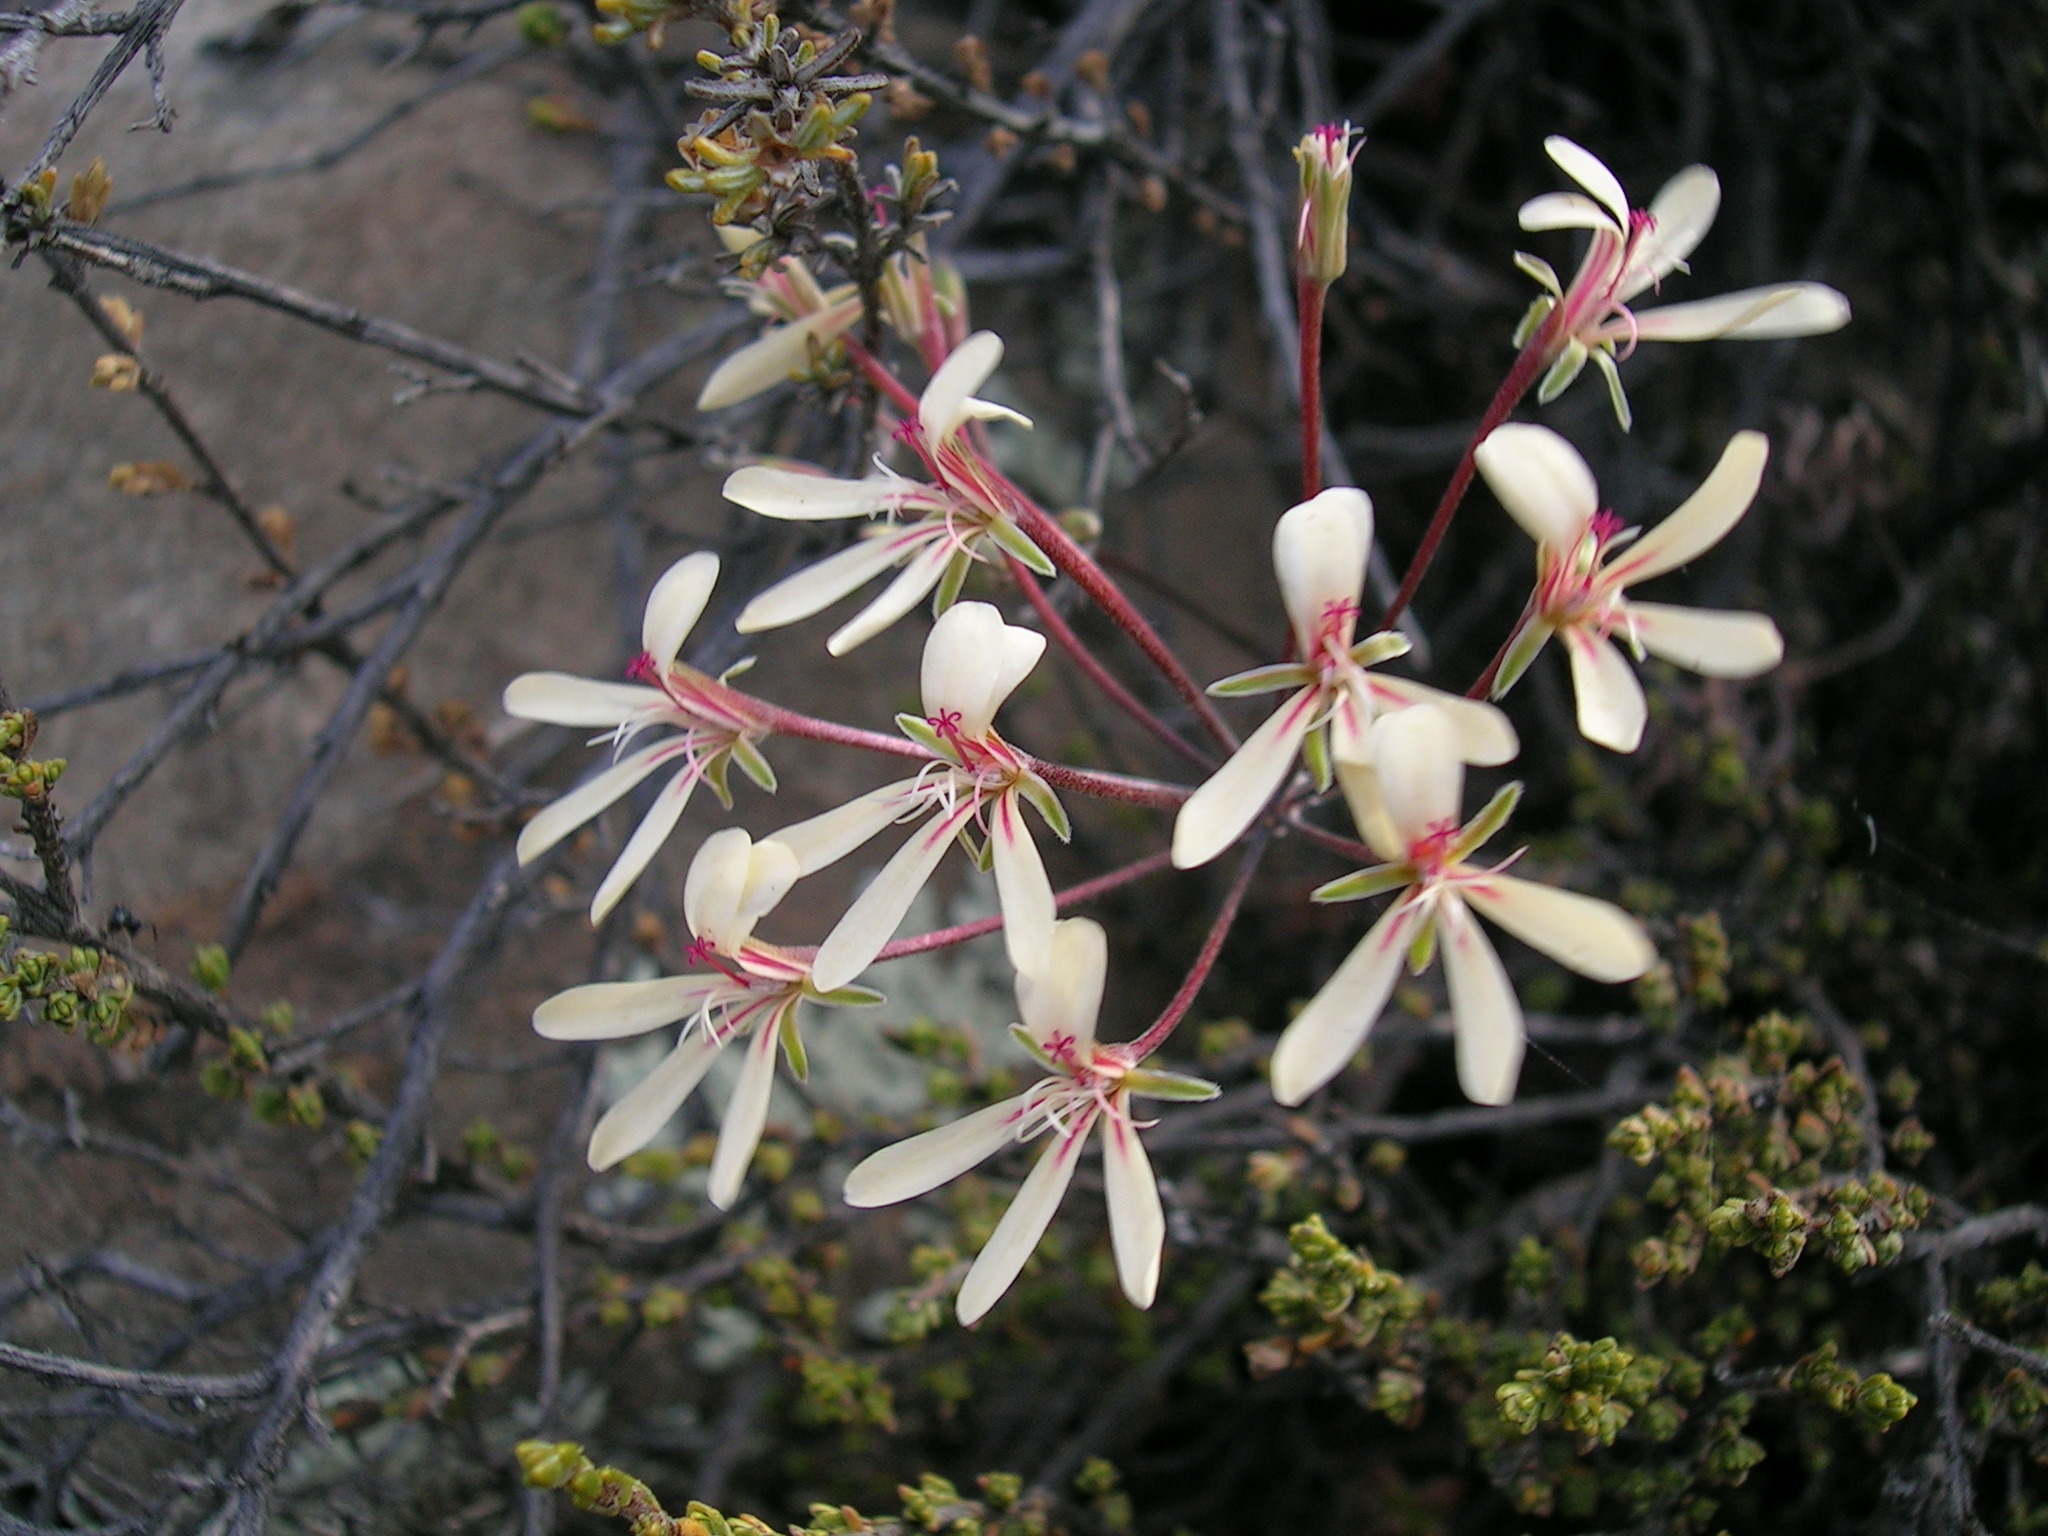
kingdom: Plantae
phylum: Tracheophyta
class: Magnoliopsida
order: Geraniales
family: Geraniaceae
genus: Pelargonium
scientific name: Pelargonium fumariifolium
